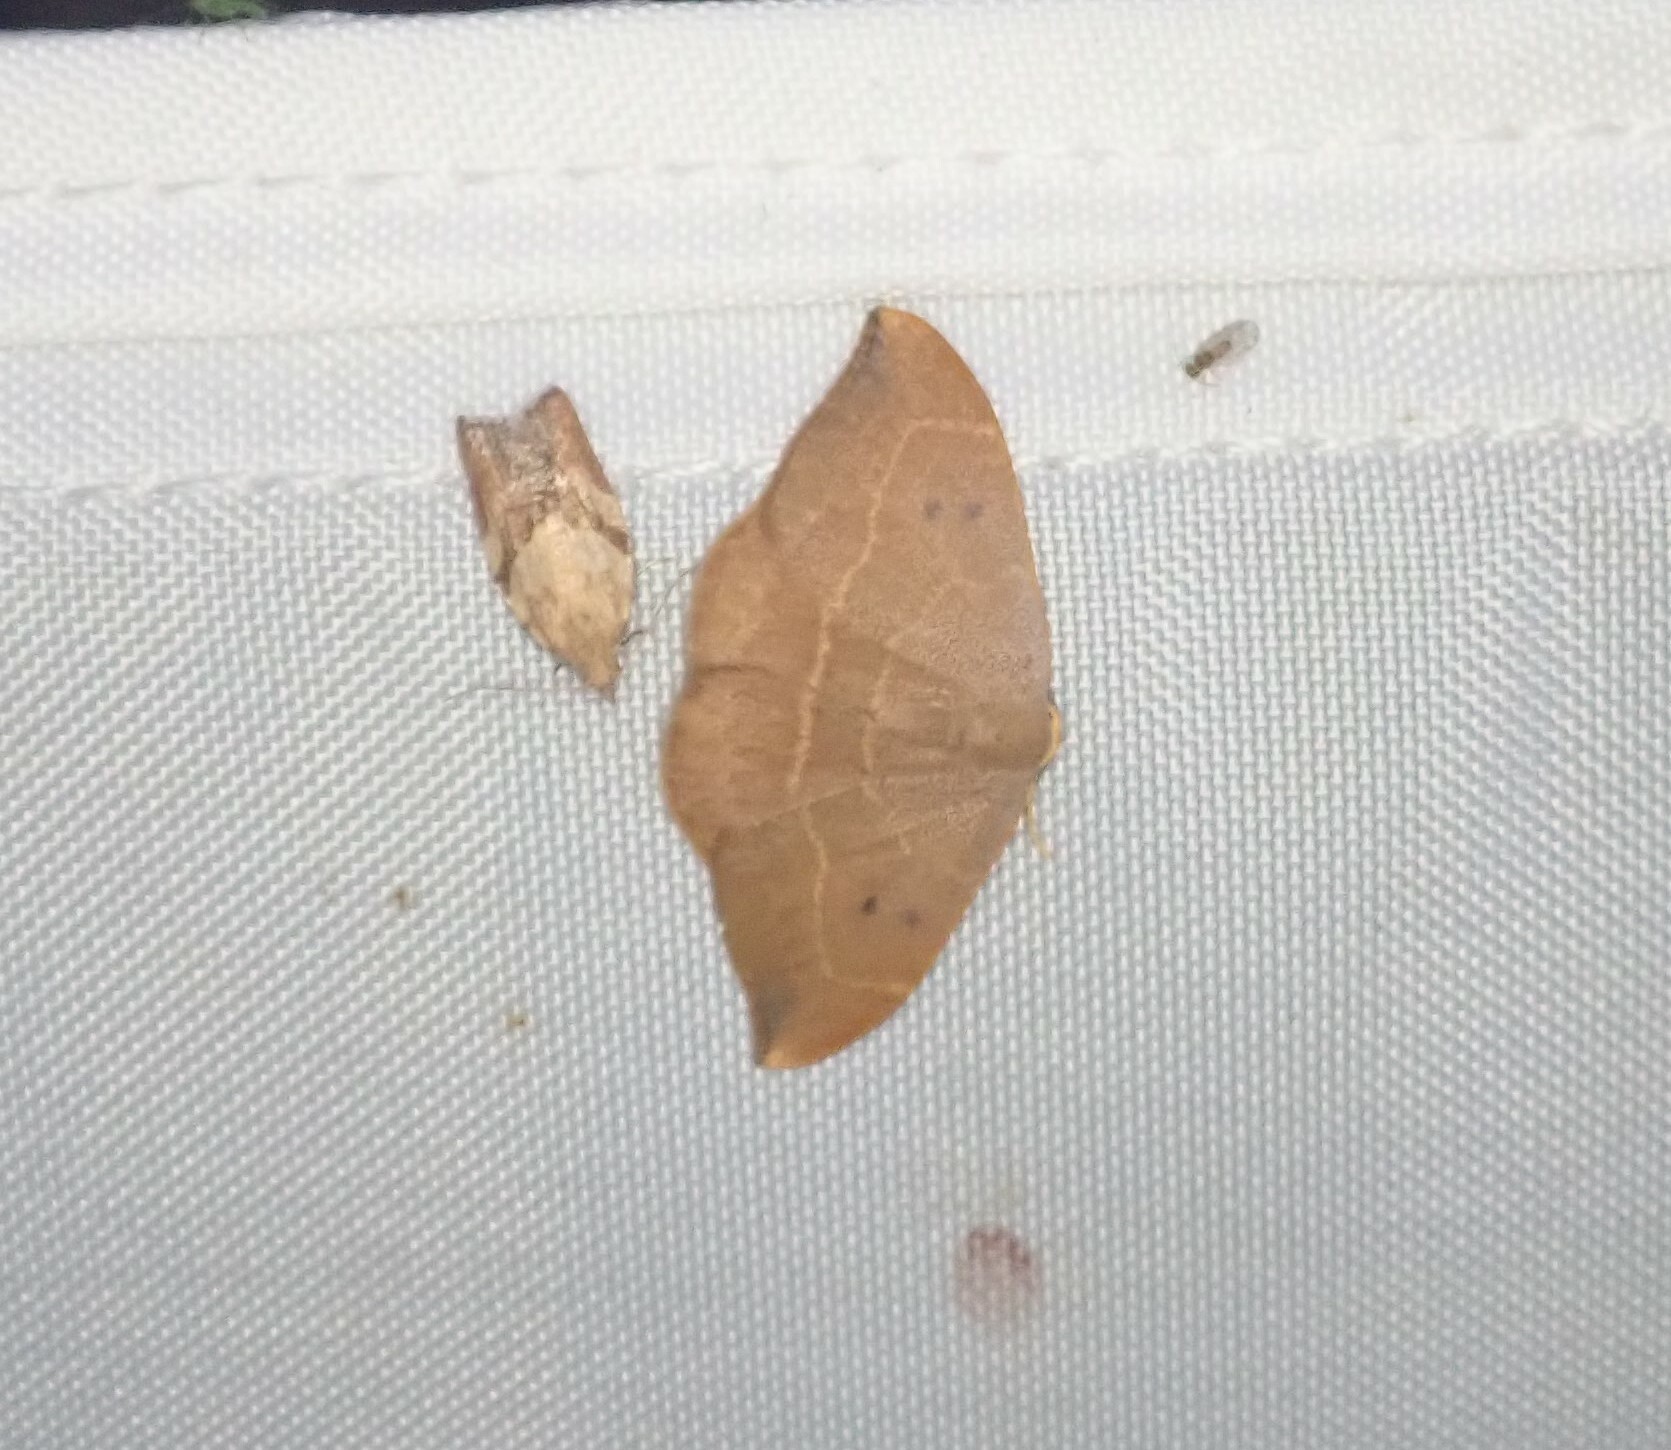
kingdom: Animalia
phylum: Arthropoda
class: Insecta
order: Lepidoptera
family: Drepanidae
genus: Watsonalla
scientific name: Watsonalla binaria
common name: Oak hook-tip
